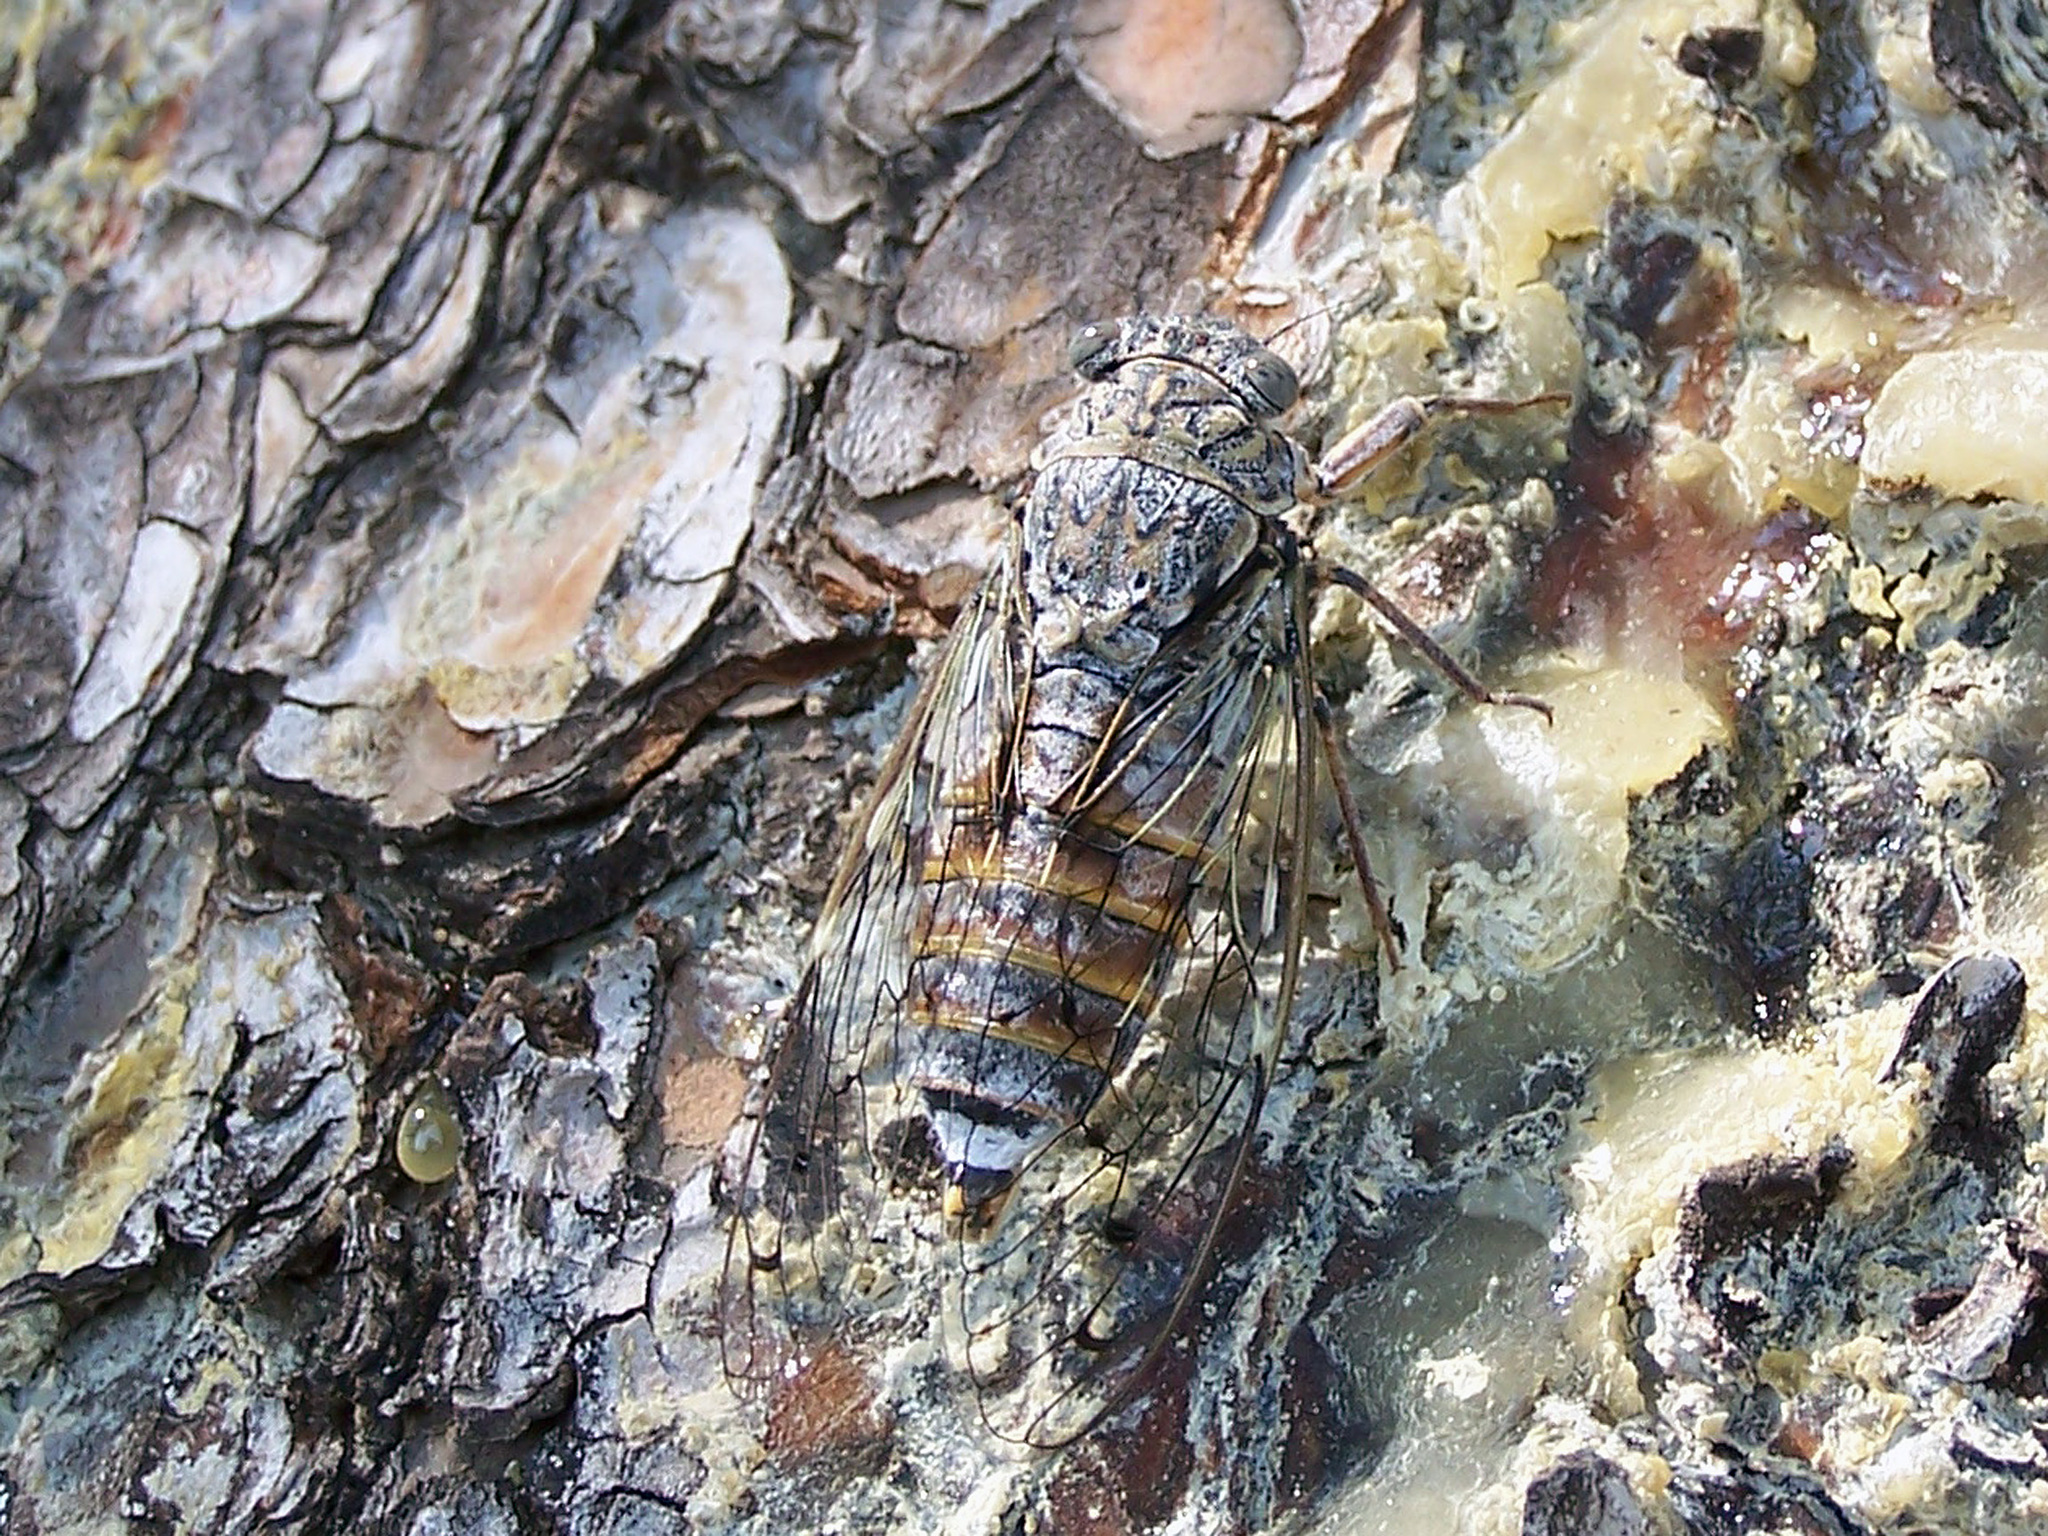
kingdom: Animalia
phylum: Arthropoda
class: Insecta
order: Hemiptera
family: Cicadidae
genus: Cicada
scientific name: Cicada orni
